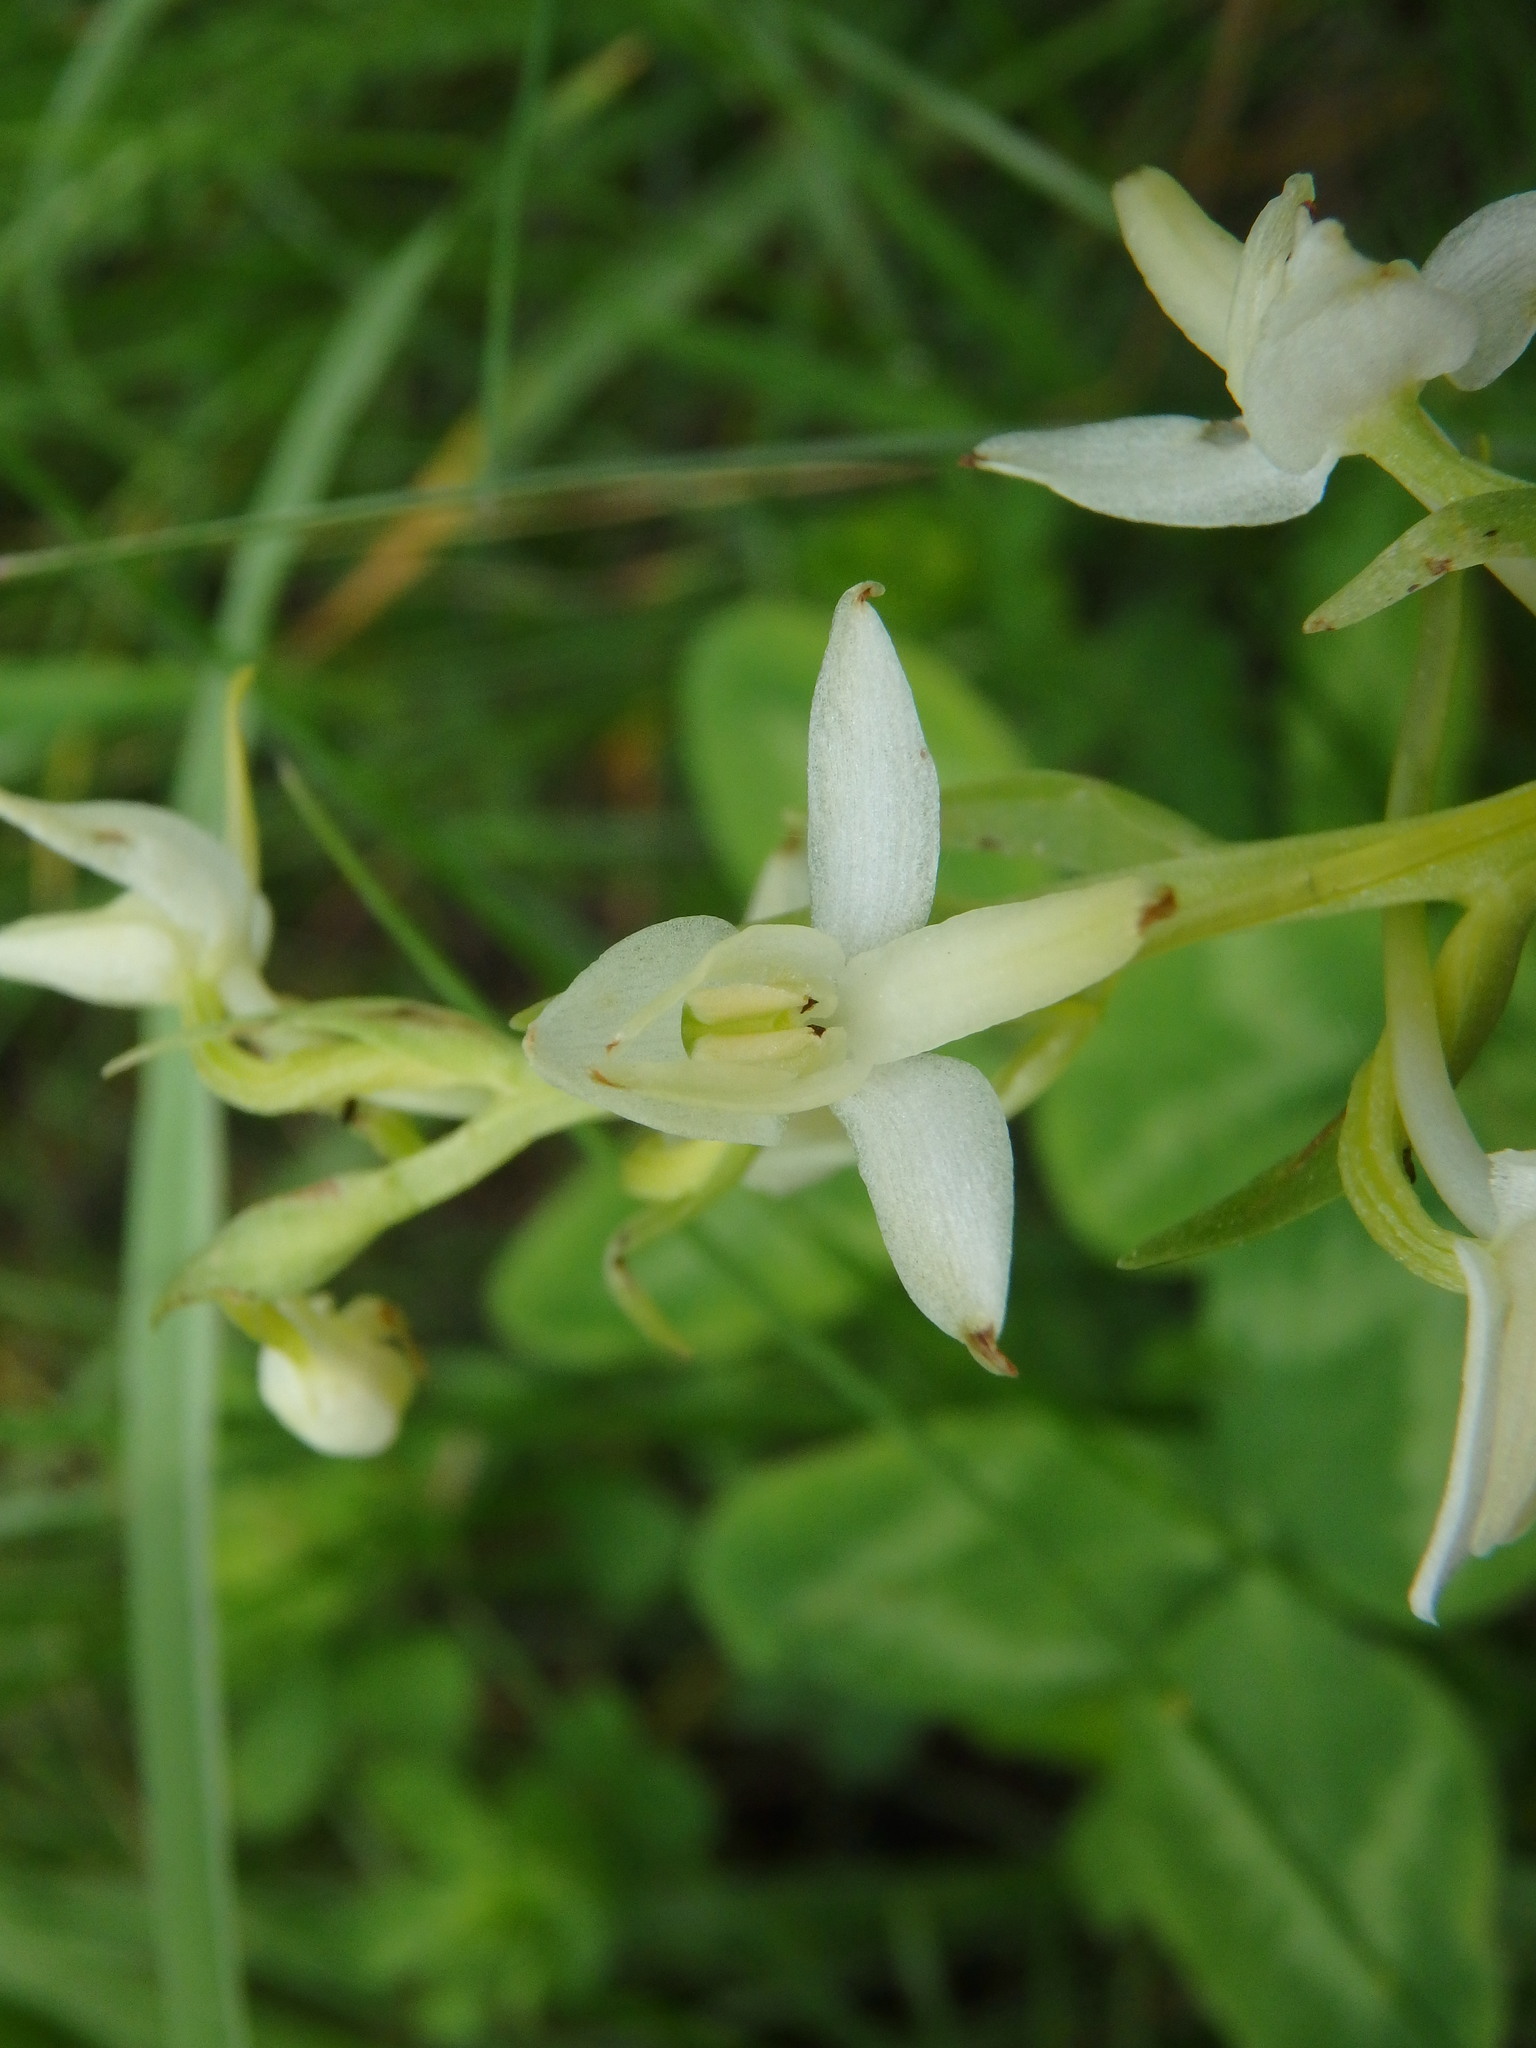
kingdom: Plantae
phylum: Tracheophyta
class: Liliopsida
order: Asparagales
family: Orchidaceae
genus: Platanthera
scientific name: Platanthera bifolia
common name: Lesser butterfly-orchid
